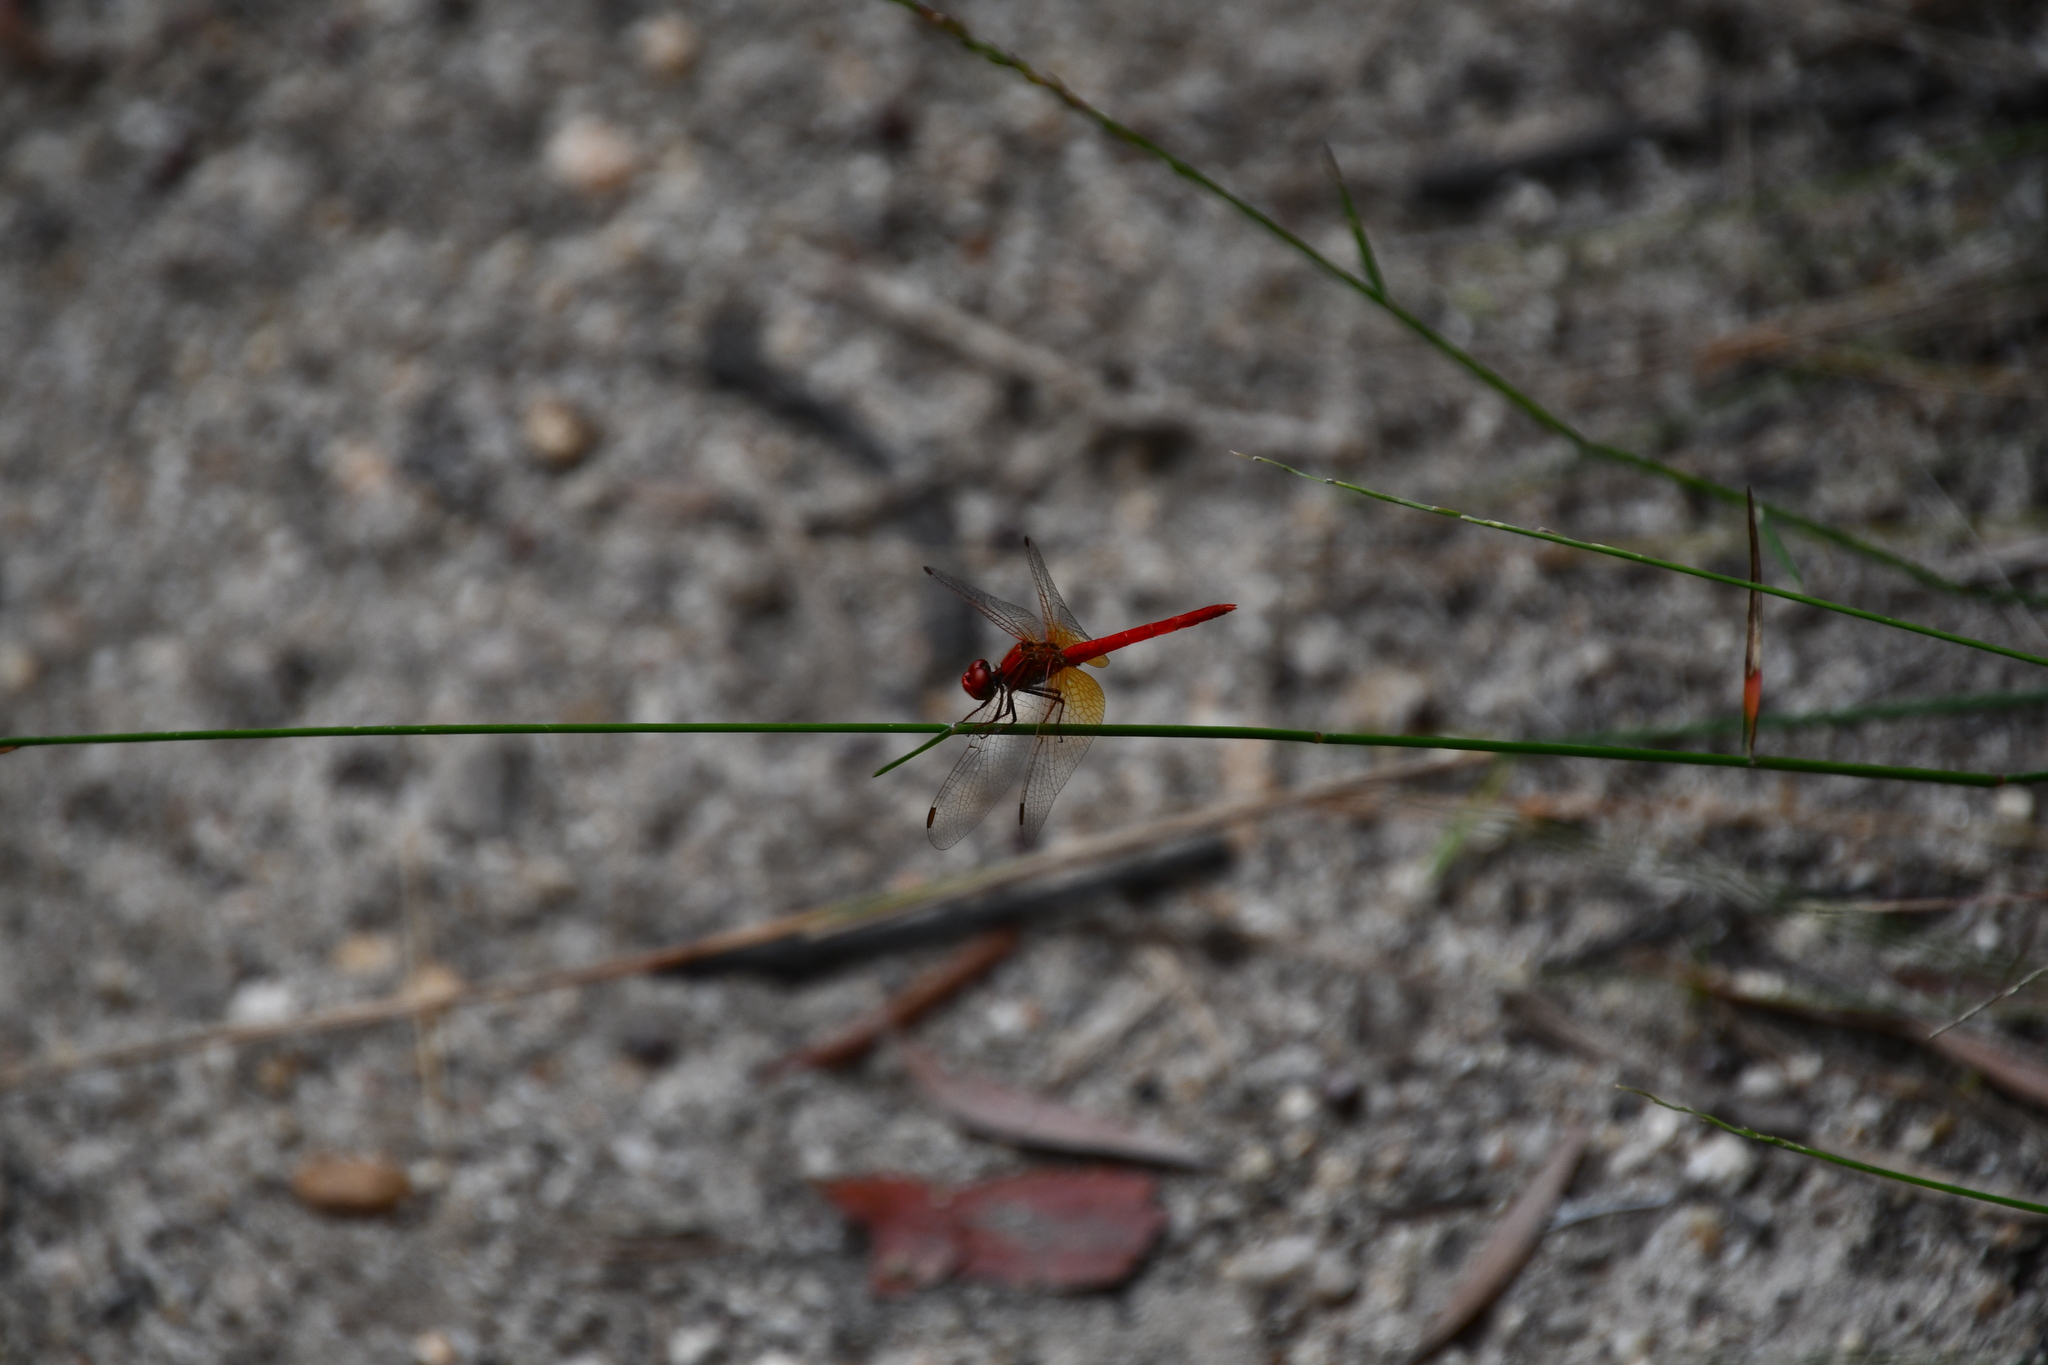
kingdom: Animalia
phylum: Arthropoda
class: Insecta
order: Odonata
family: Libellulidae
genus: Diplacodes
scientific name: Diplacodes haematodes
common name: Scarlet percher
